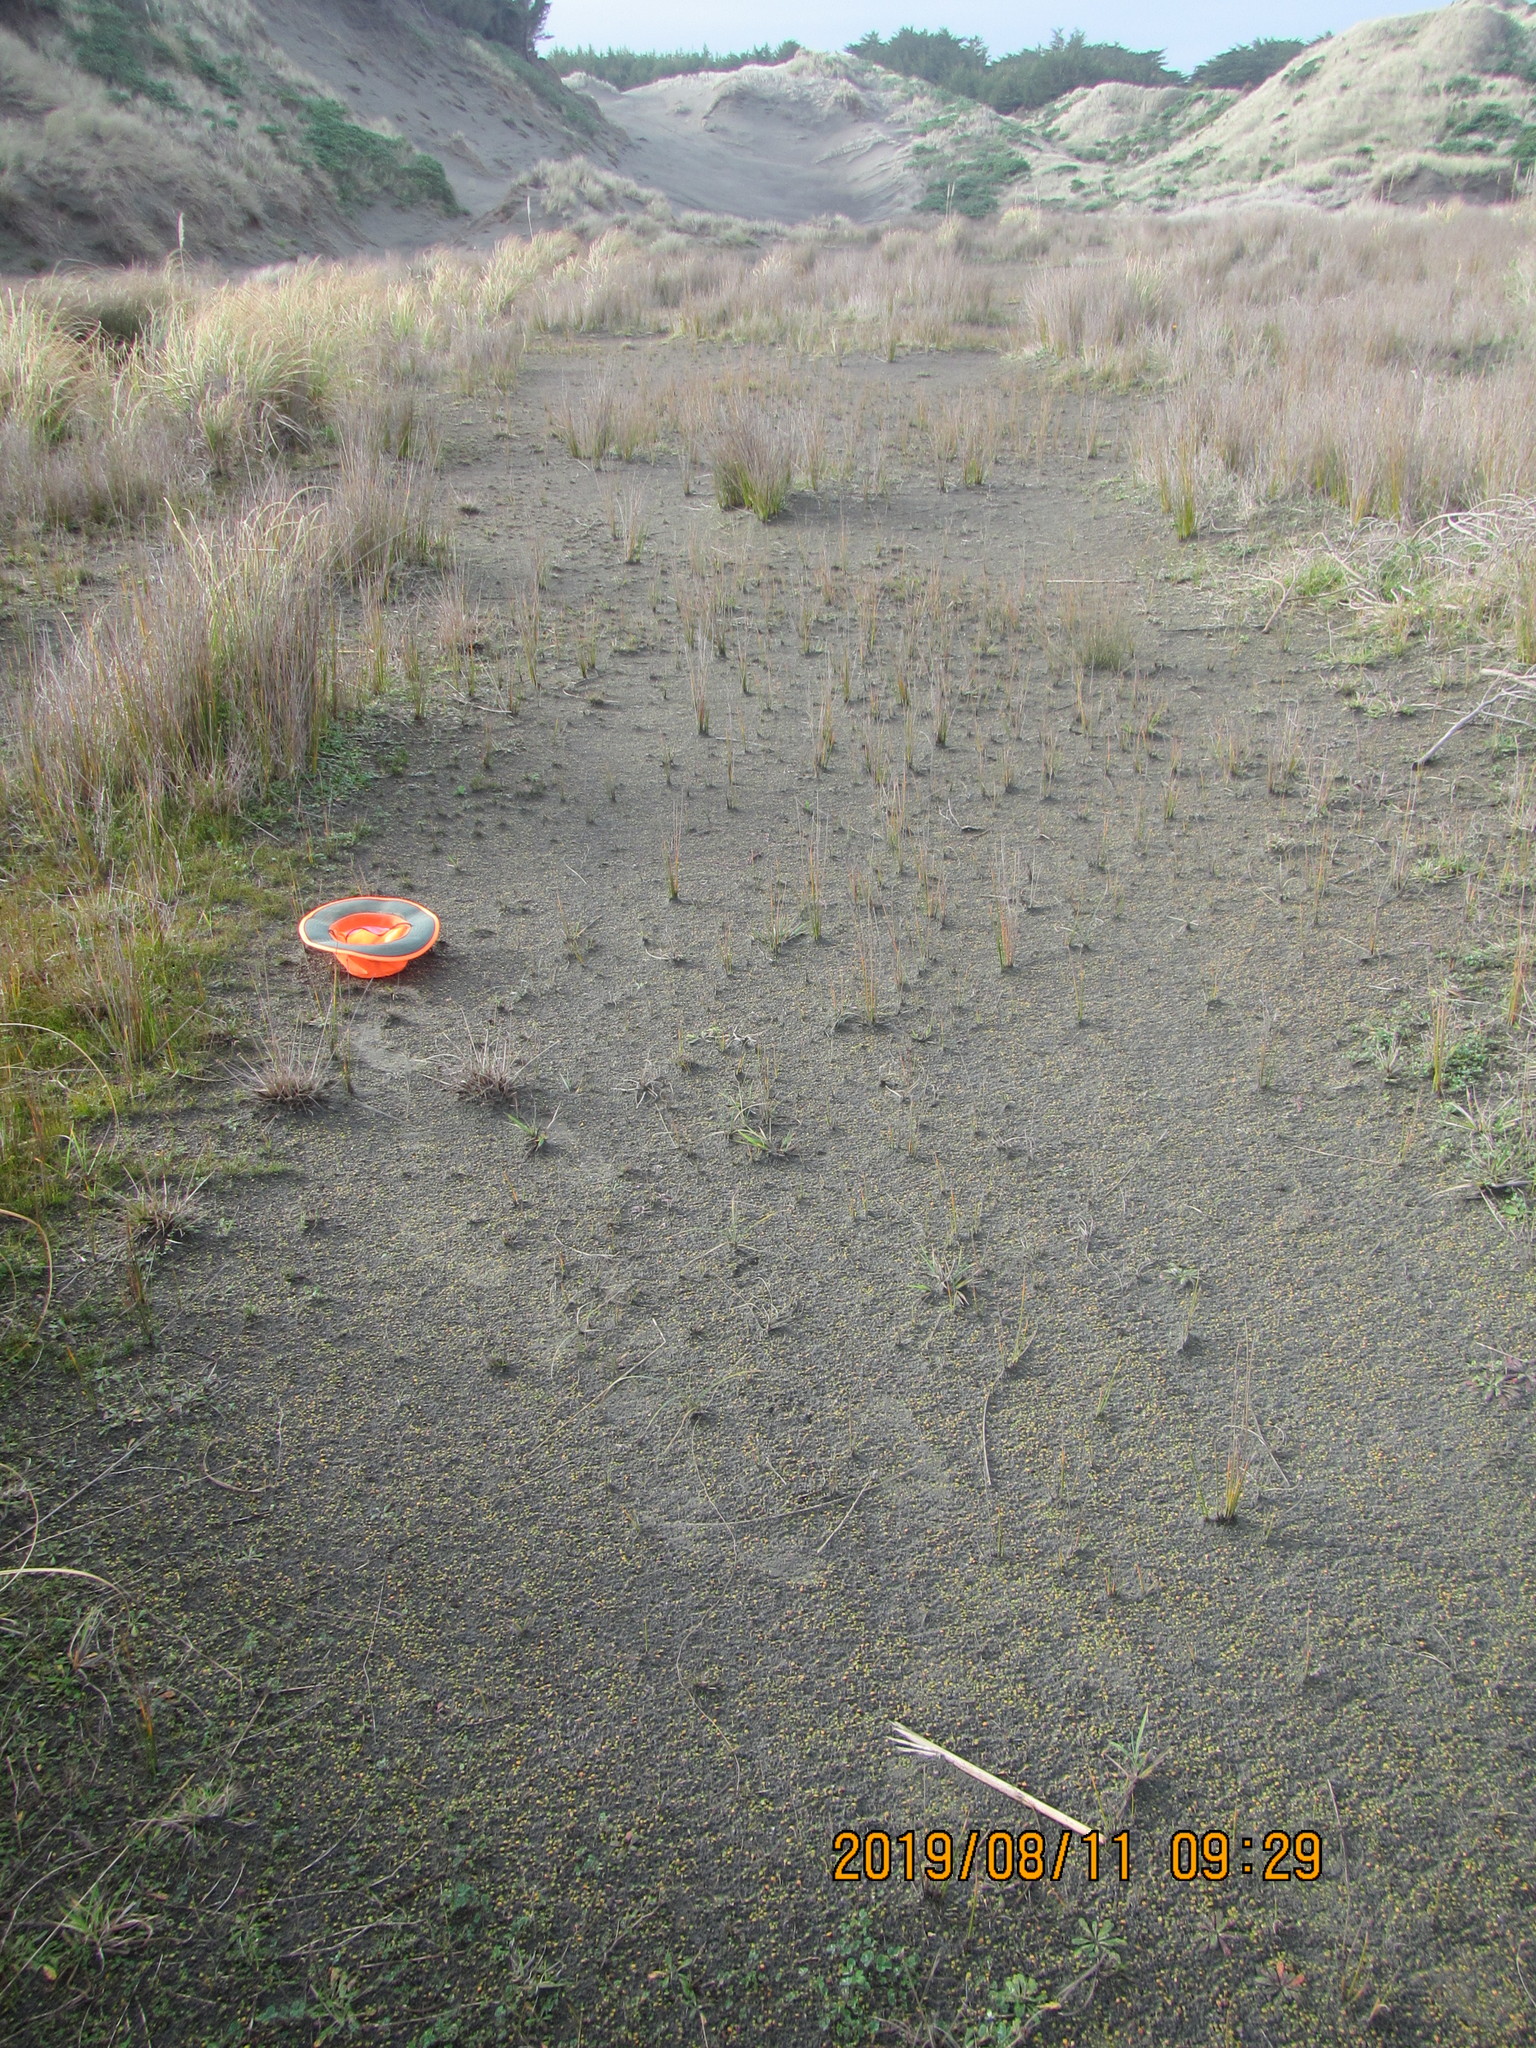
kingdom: Plantae
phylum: Tracheophyta
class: Magnoliopsida
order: Asterales
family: Goodeniaceae
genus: Goodenia
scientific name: Goodenia heenanii
